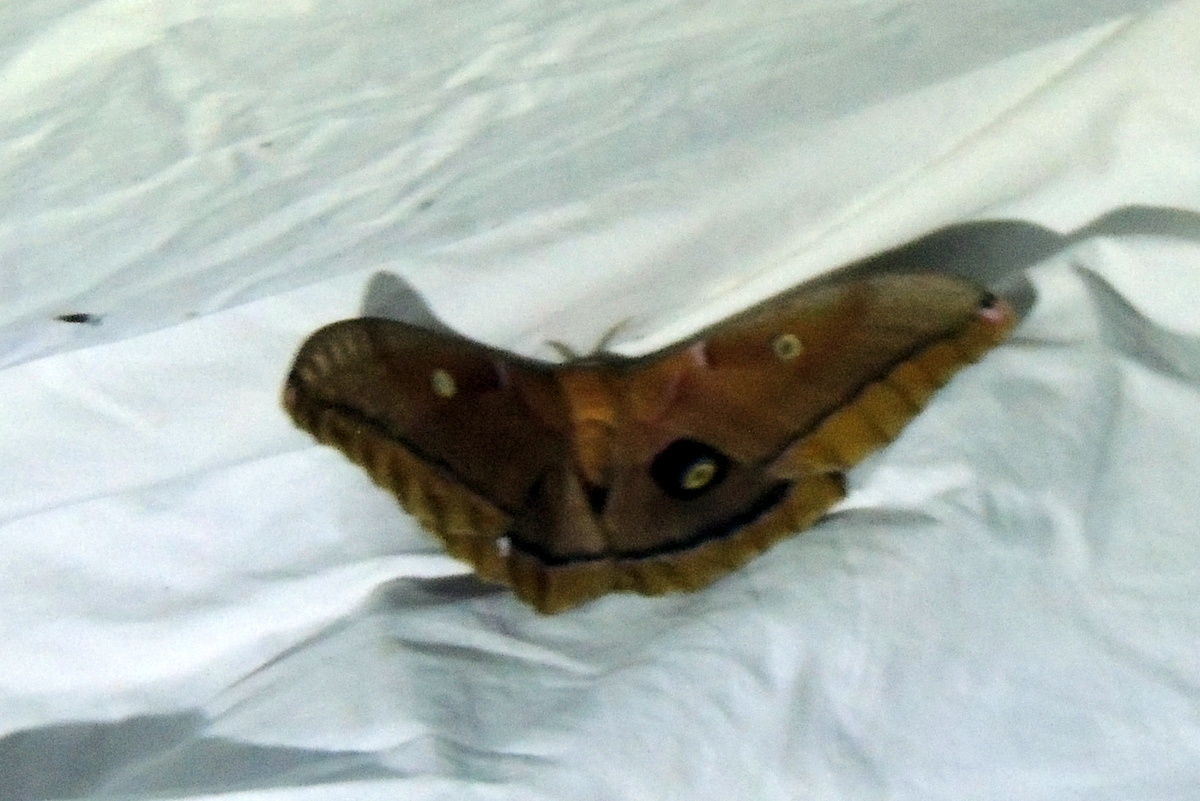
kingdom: Animalia
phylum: Arthropoda
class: Insecta
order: Lepidoptera
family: Saturniidae
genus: Antheraea
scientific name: Antheraea polyphemus
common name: Polyphemus moth
